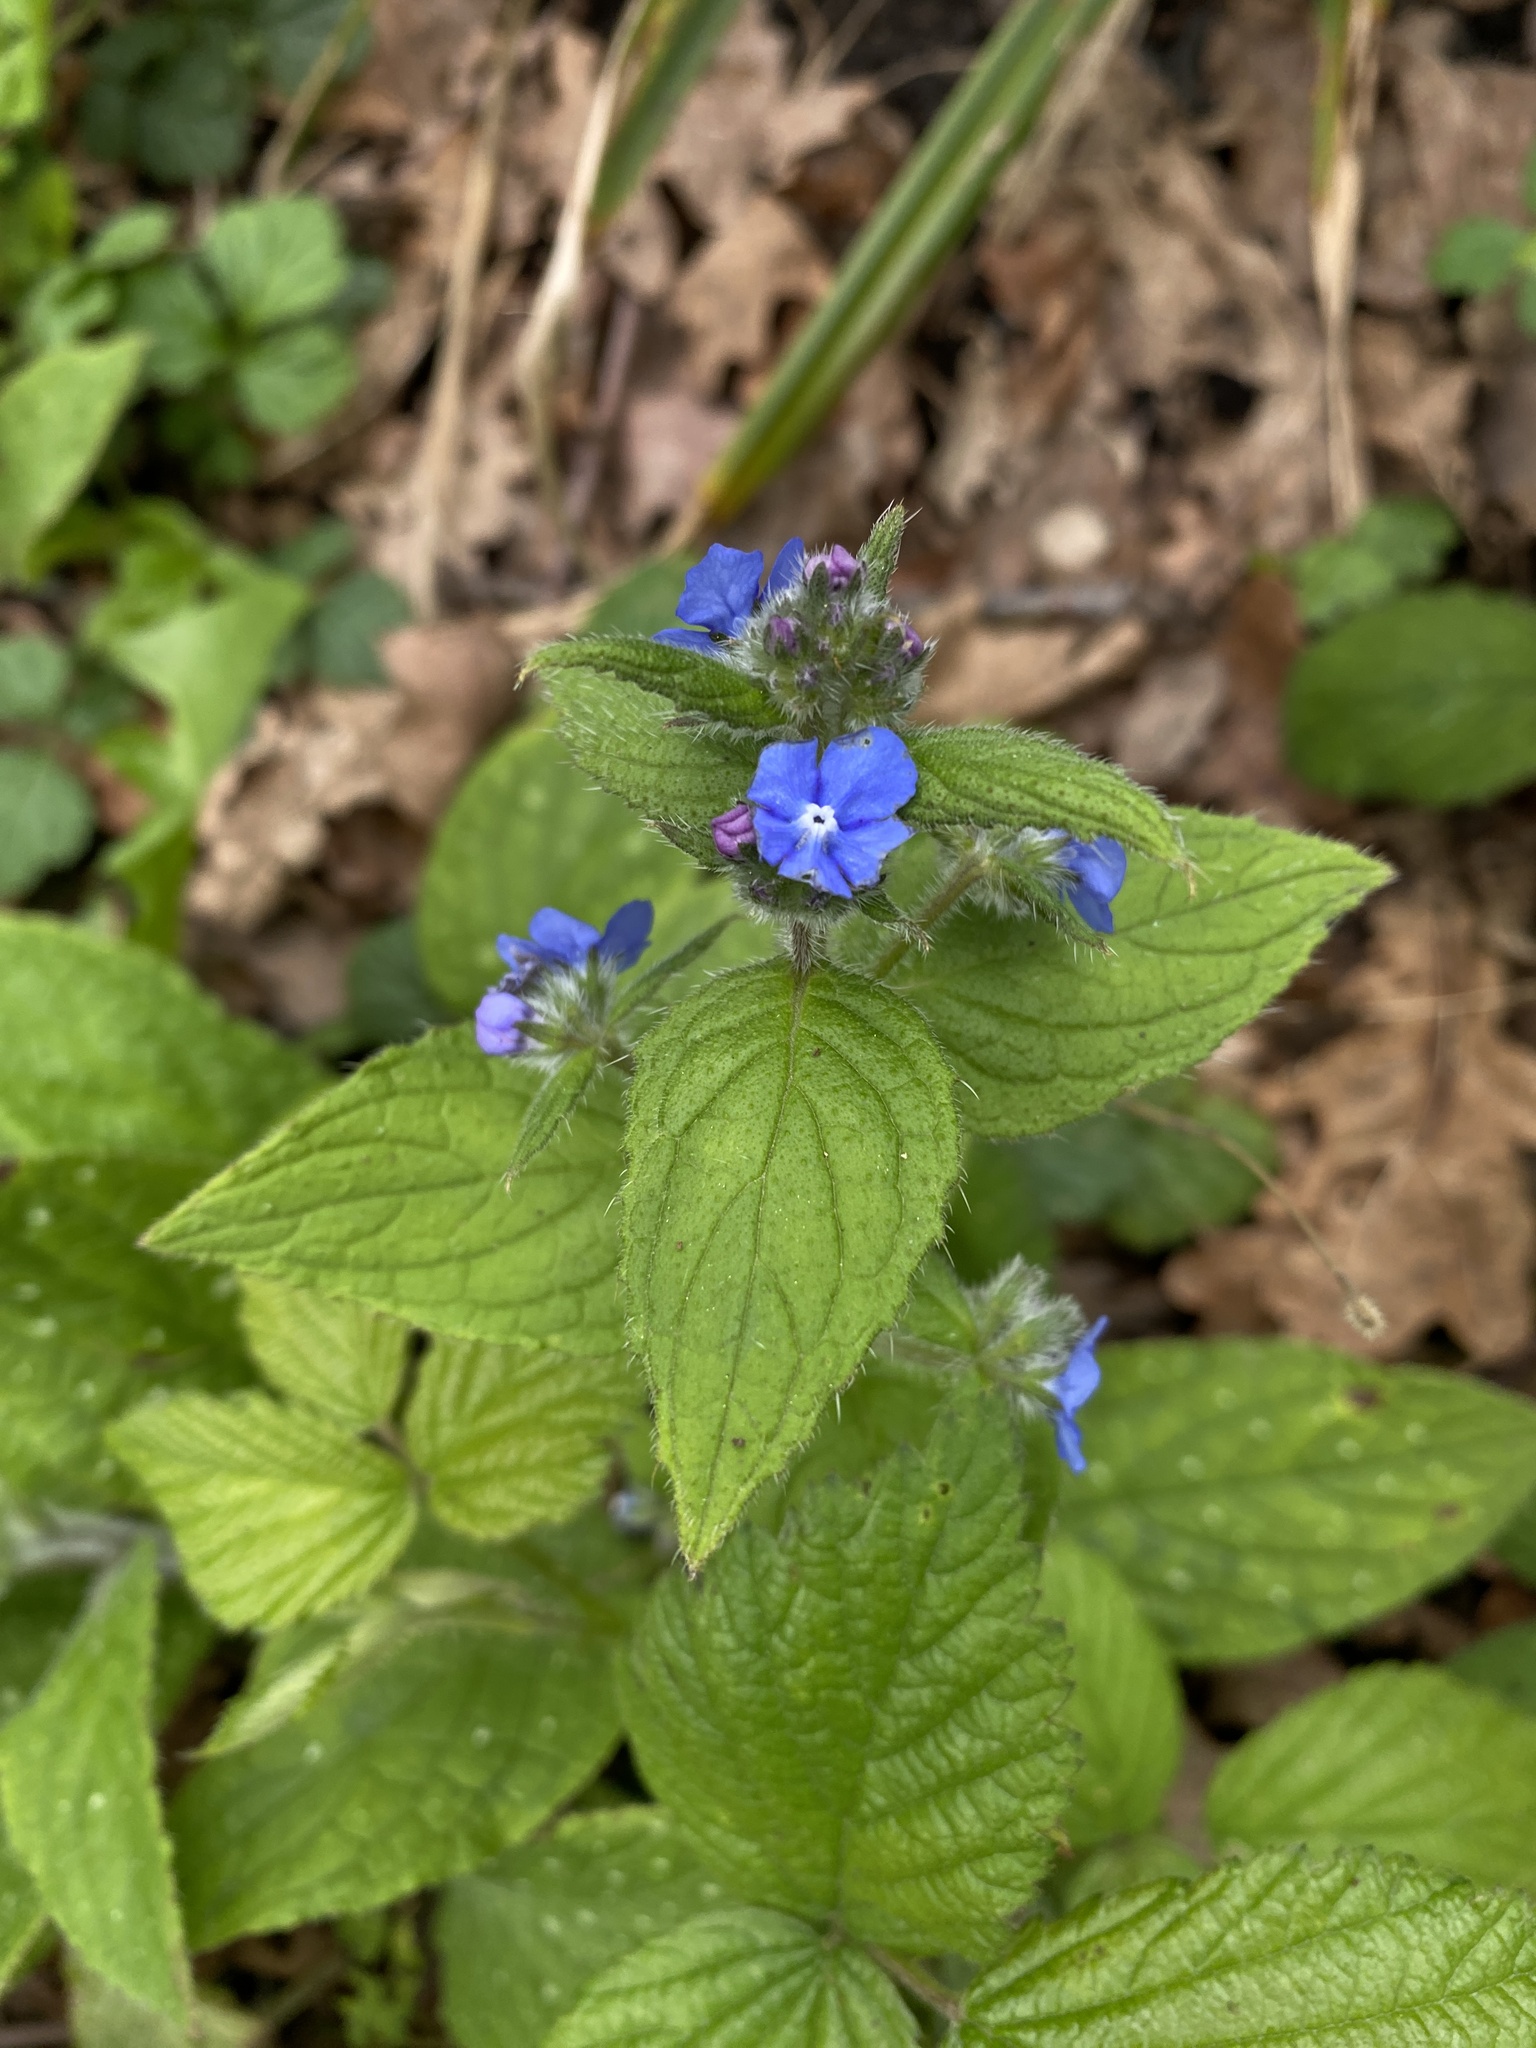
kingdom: Plantae
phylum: Tracheophyta
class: Magnoliopsida
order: Boraginales
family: Boraginaceae
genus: Pentaglottis
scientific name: Pentaglottis sempervirens
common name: Green alkanet
